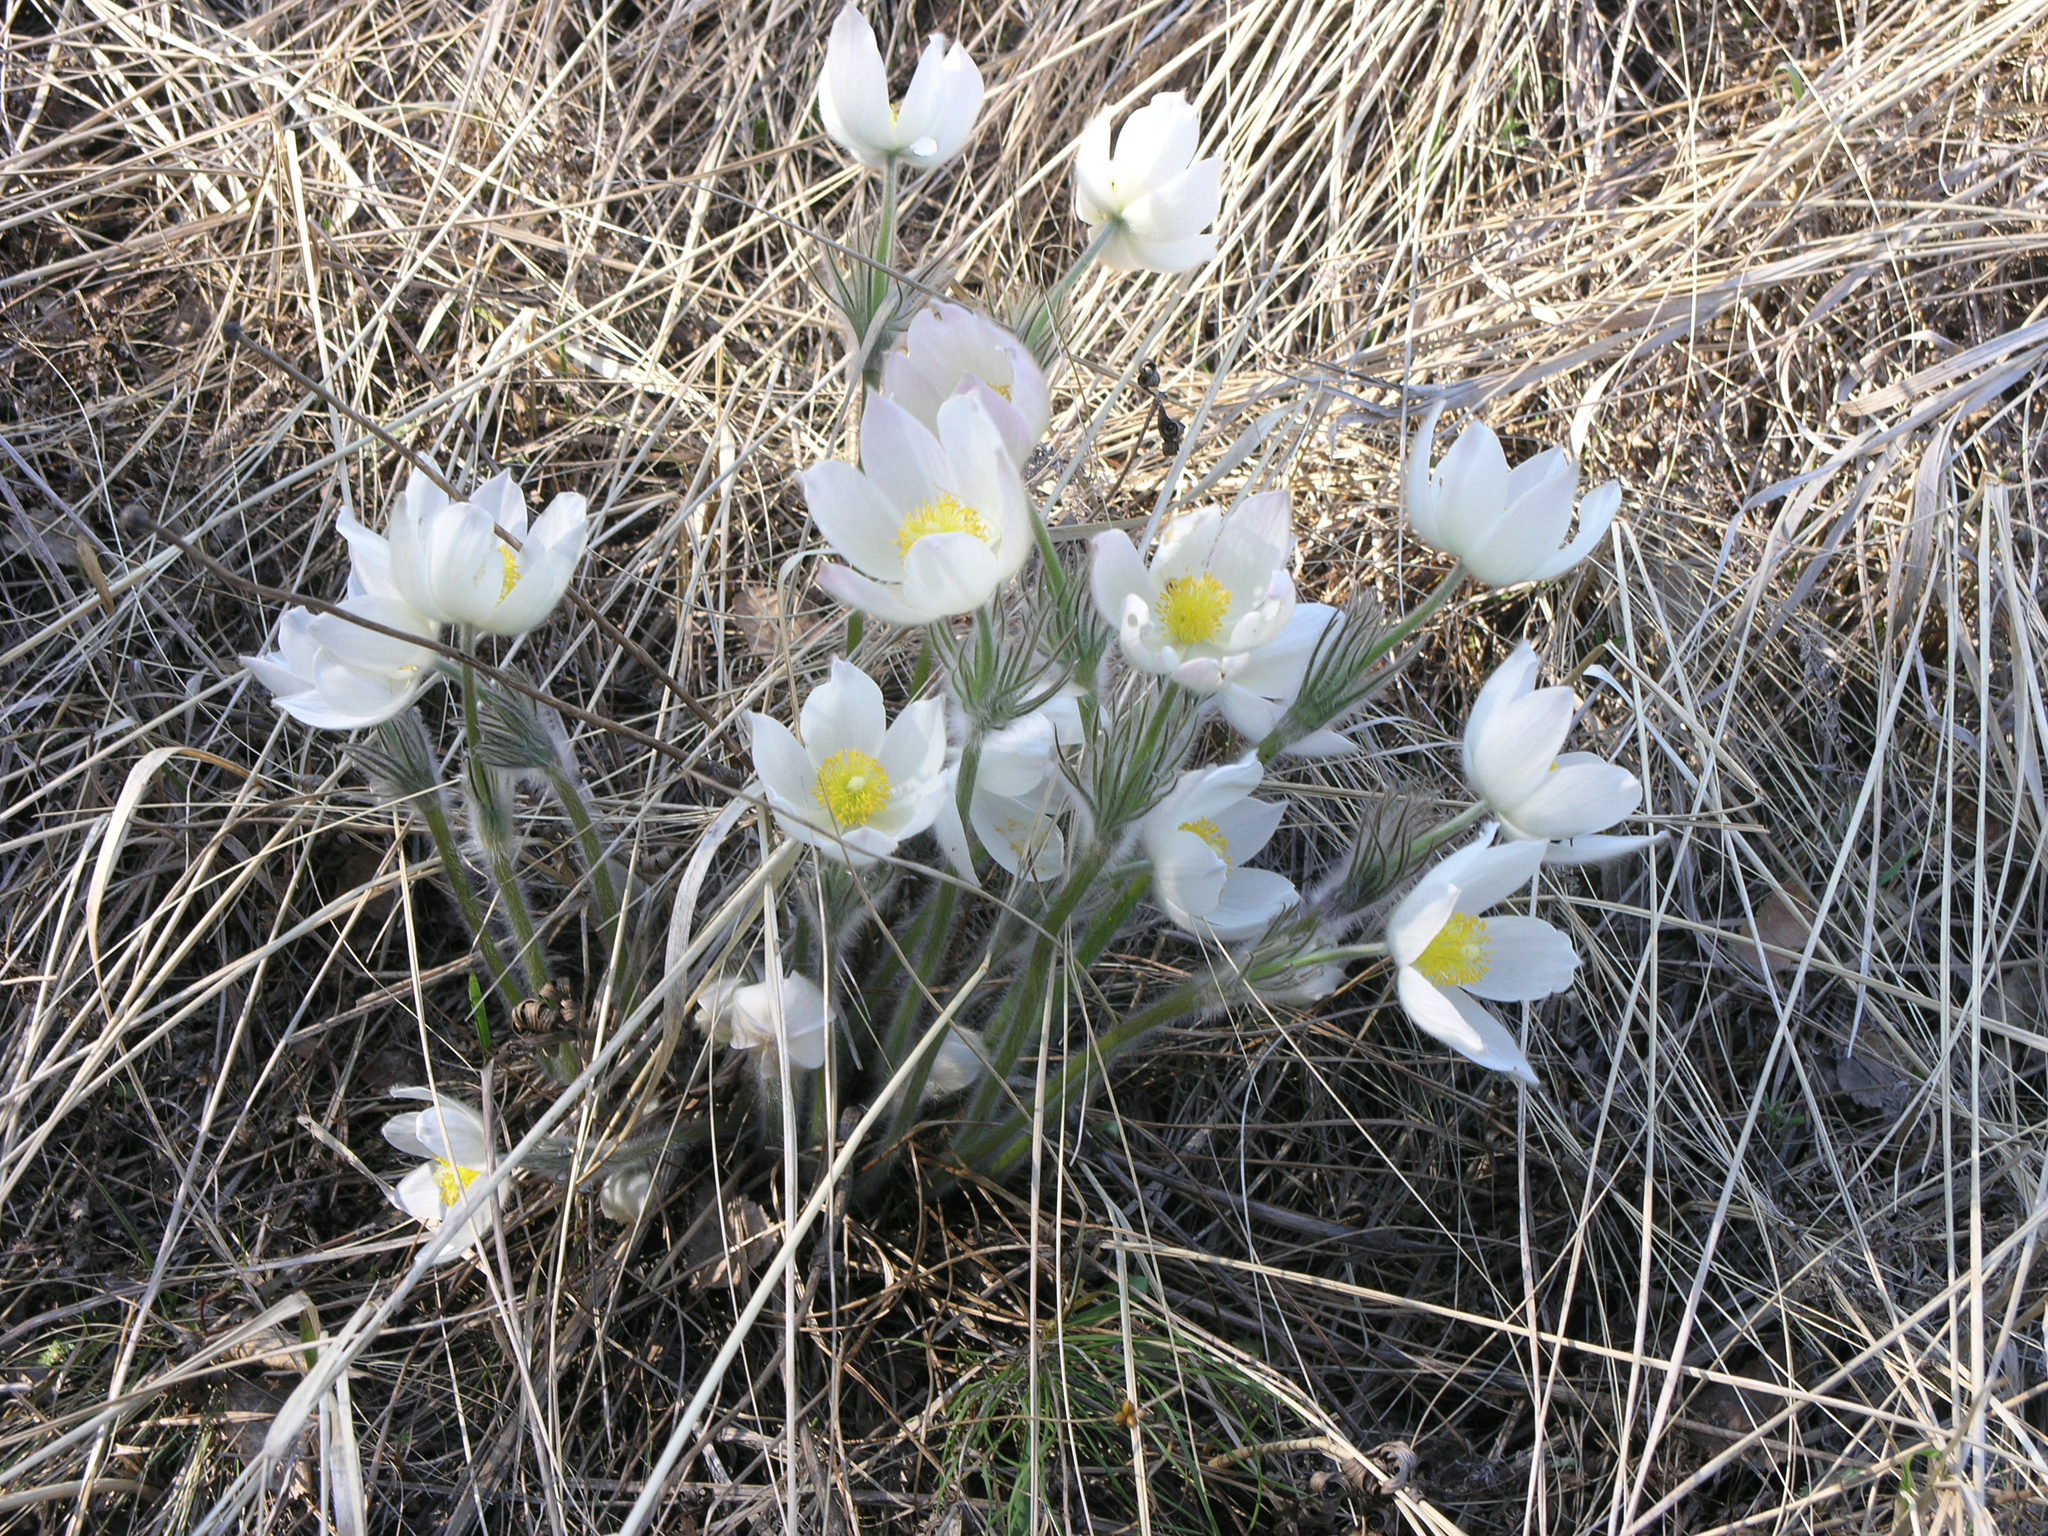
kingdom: Plantae
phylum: Tracheophyta
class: Magnoliopsida
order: Ranunculales
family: Ranunculaceae
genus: Pulsatilla
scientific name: Pulsatilla patens
